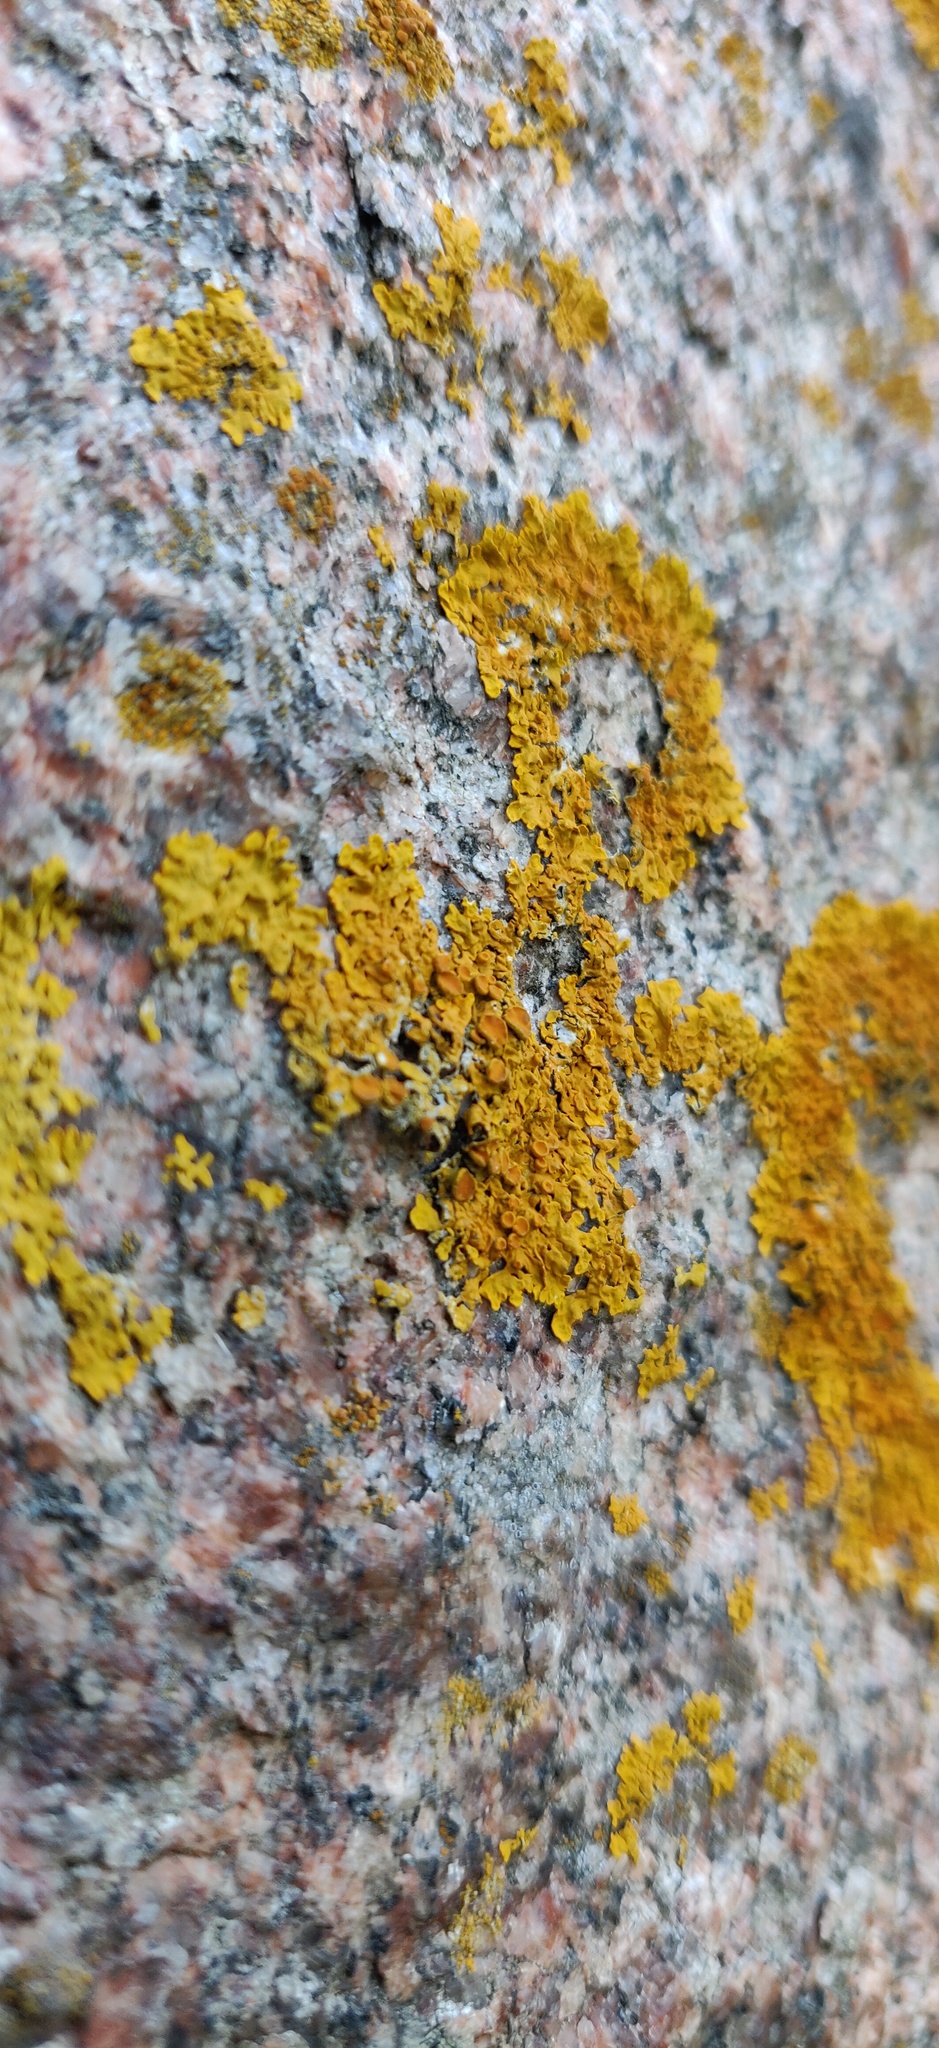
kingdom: Fungi
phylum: Ascomycota
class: Lecanoromycetes
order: Teloschistales
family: Teloschistaceae
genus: Xanthoria
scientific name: Xanthoria parietina
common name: Common orange lichen
